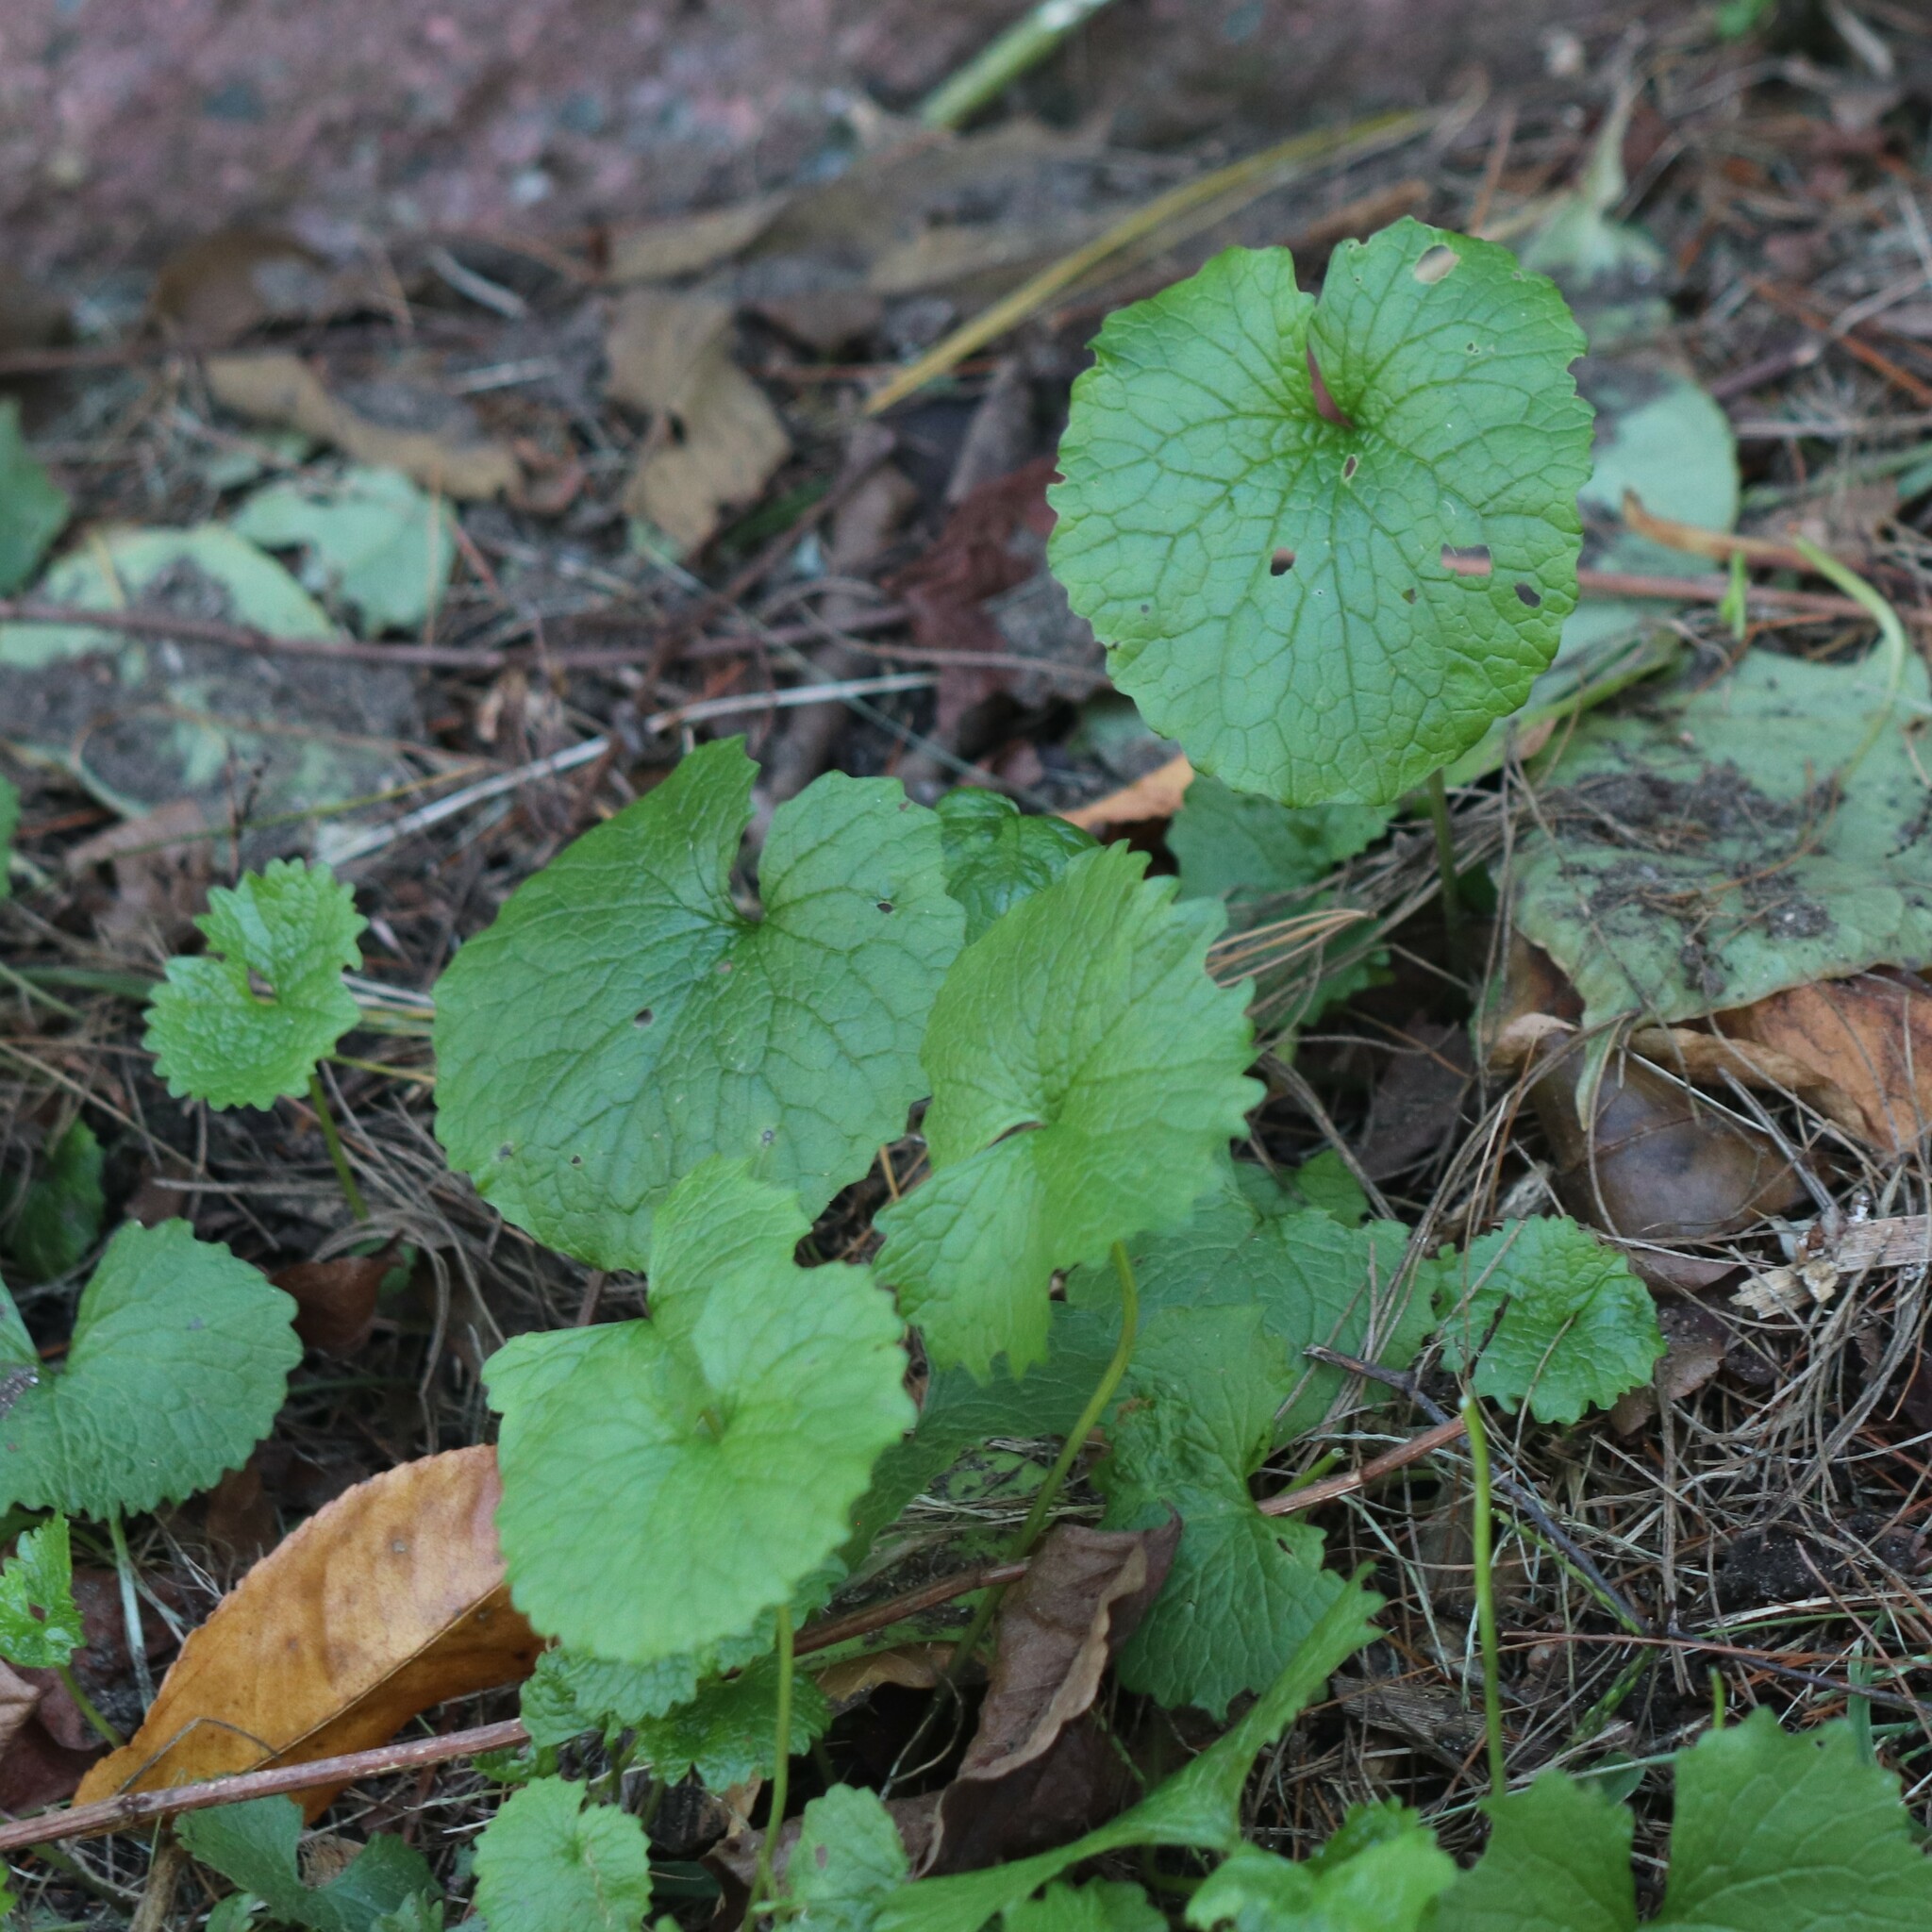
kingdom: Plantae
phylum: Tracheophyta
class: Magnoliopsida
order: Brassicales
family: Brassicaceae
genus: Alliaria
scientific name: Alliaria petiolata
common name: Garlic mustard
